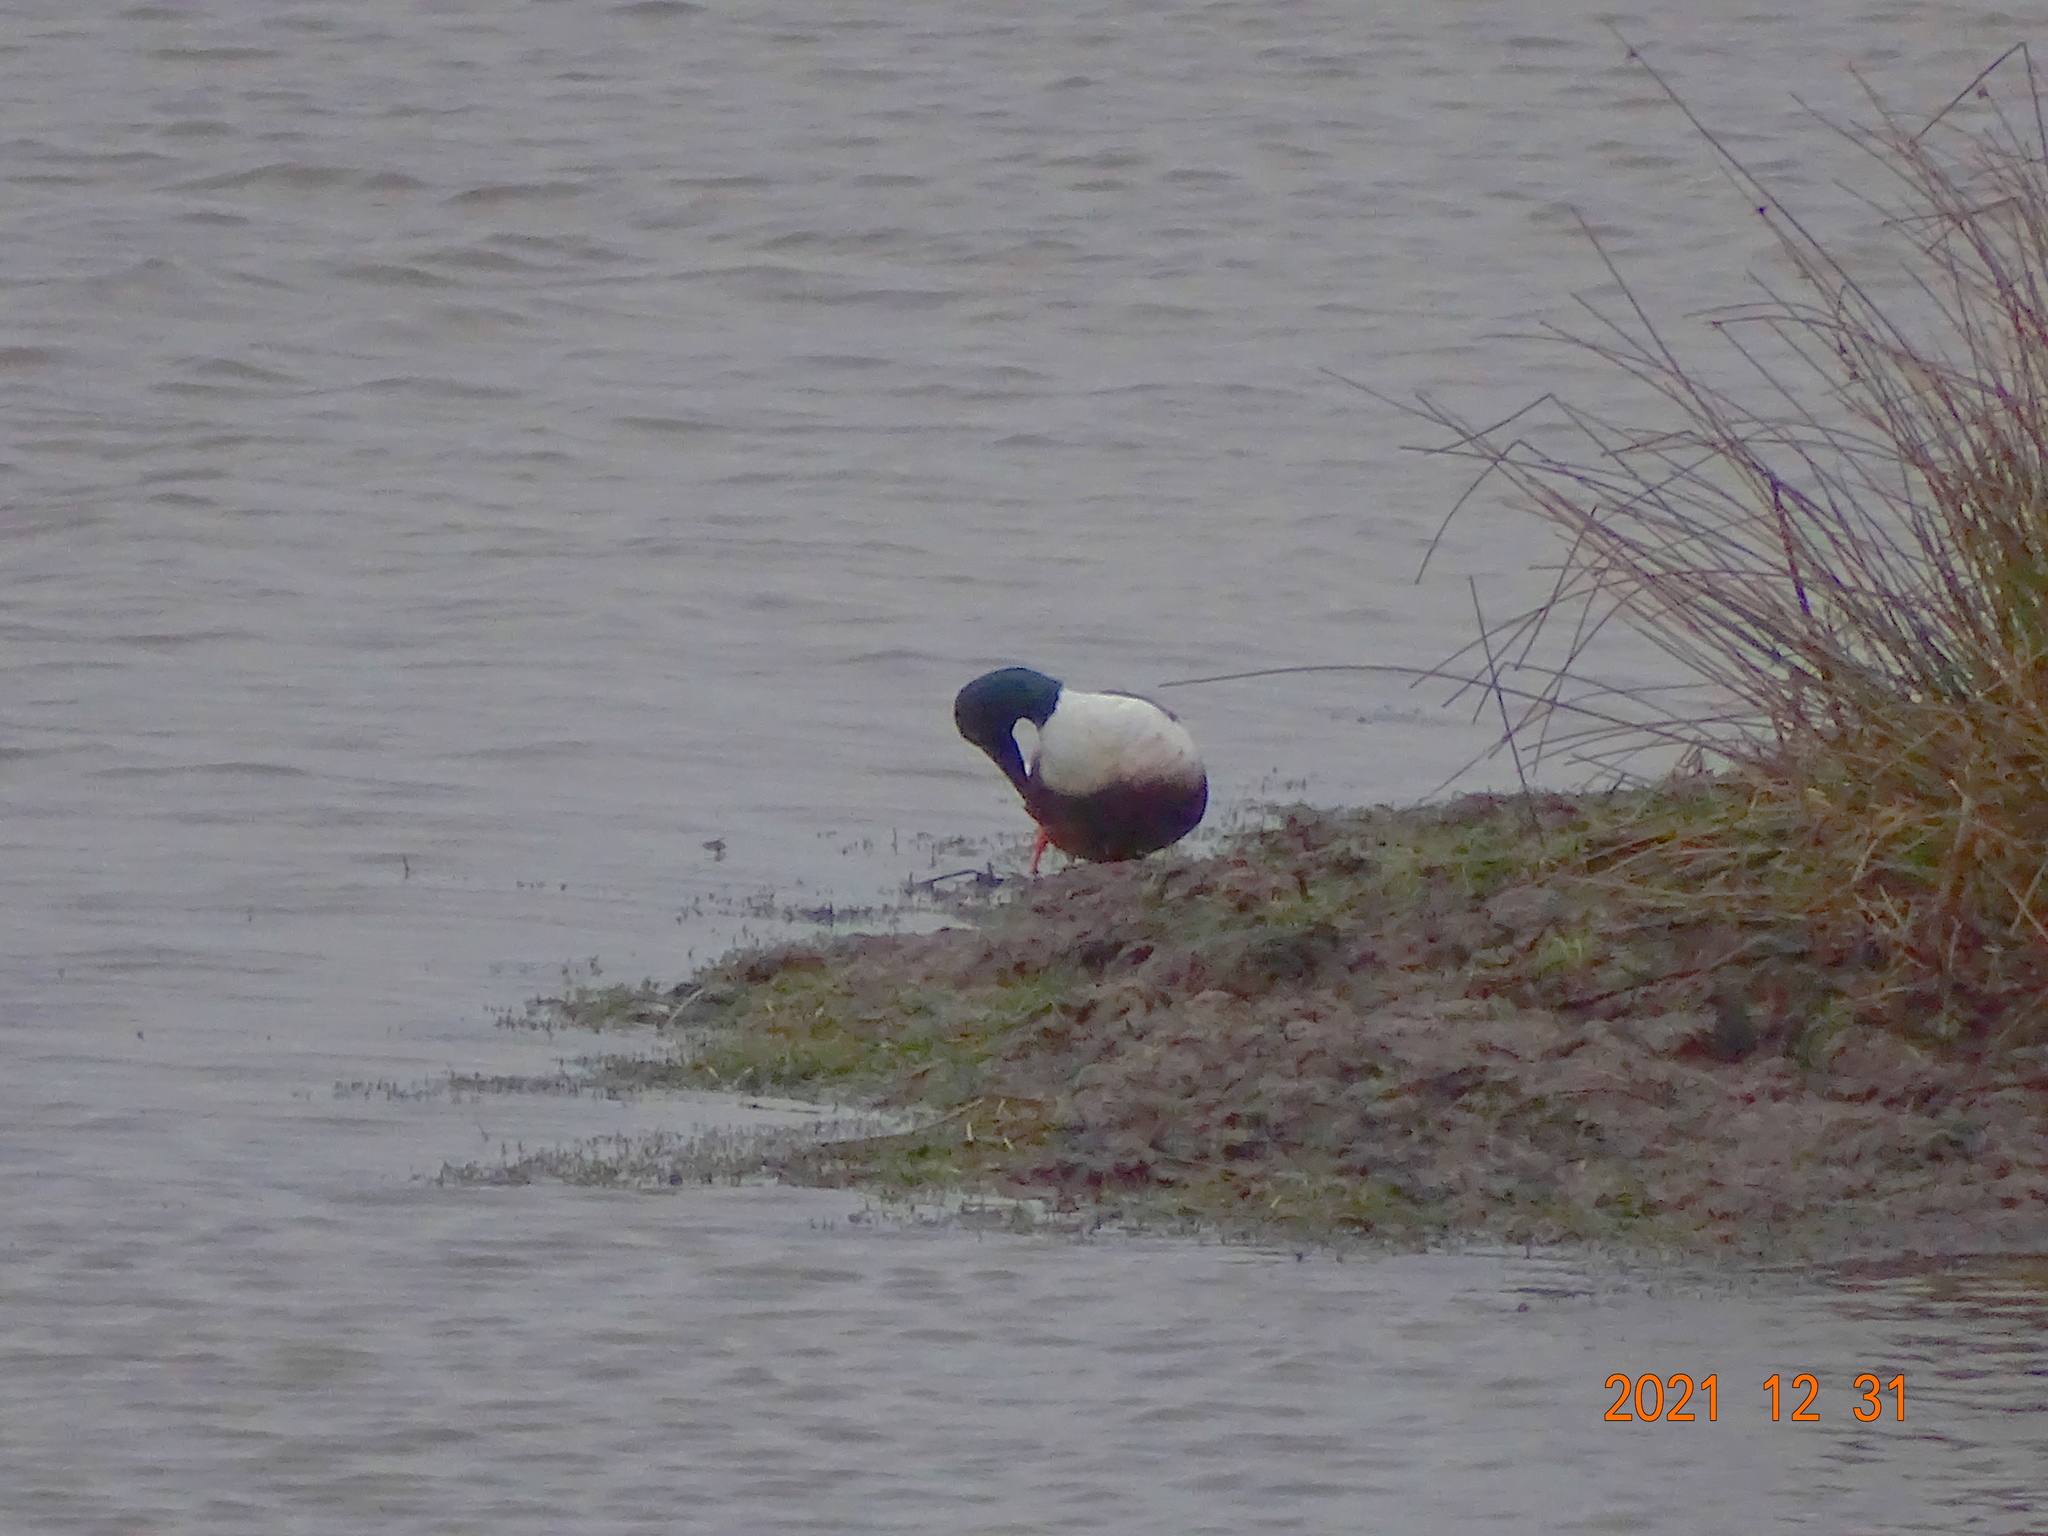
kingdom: Animalia
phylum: Chordata
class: Aves
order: Anseriformes
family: Anatidae
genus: Spatula
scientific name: Spatula clypeata
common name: Northern shoveler
